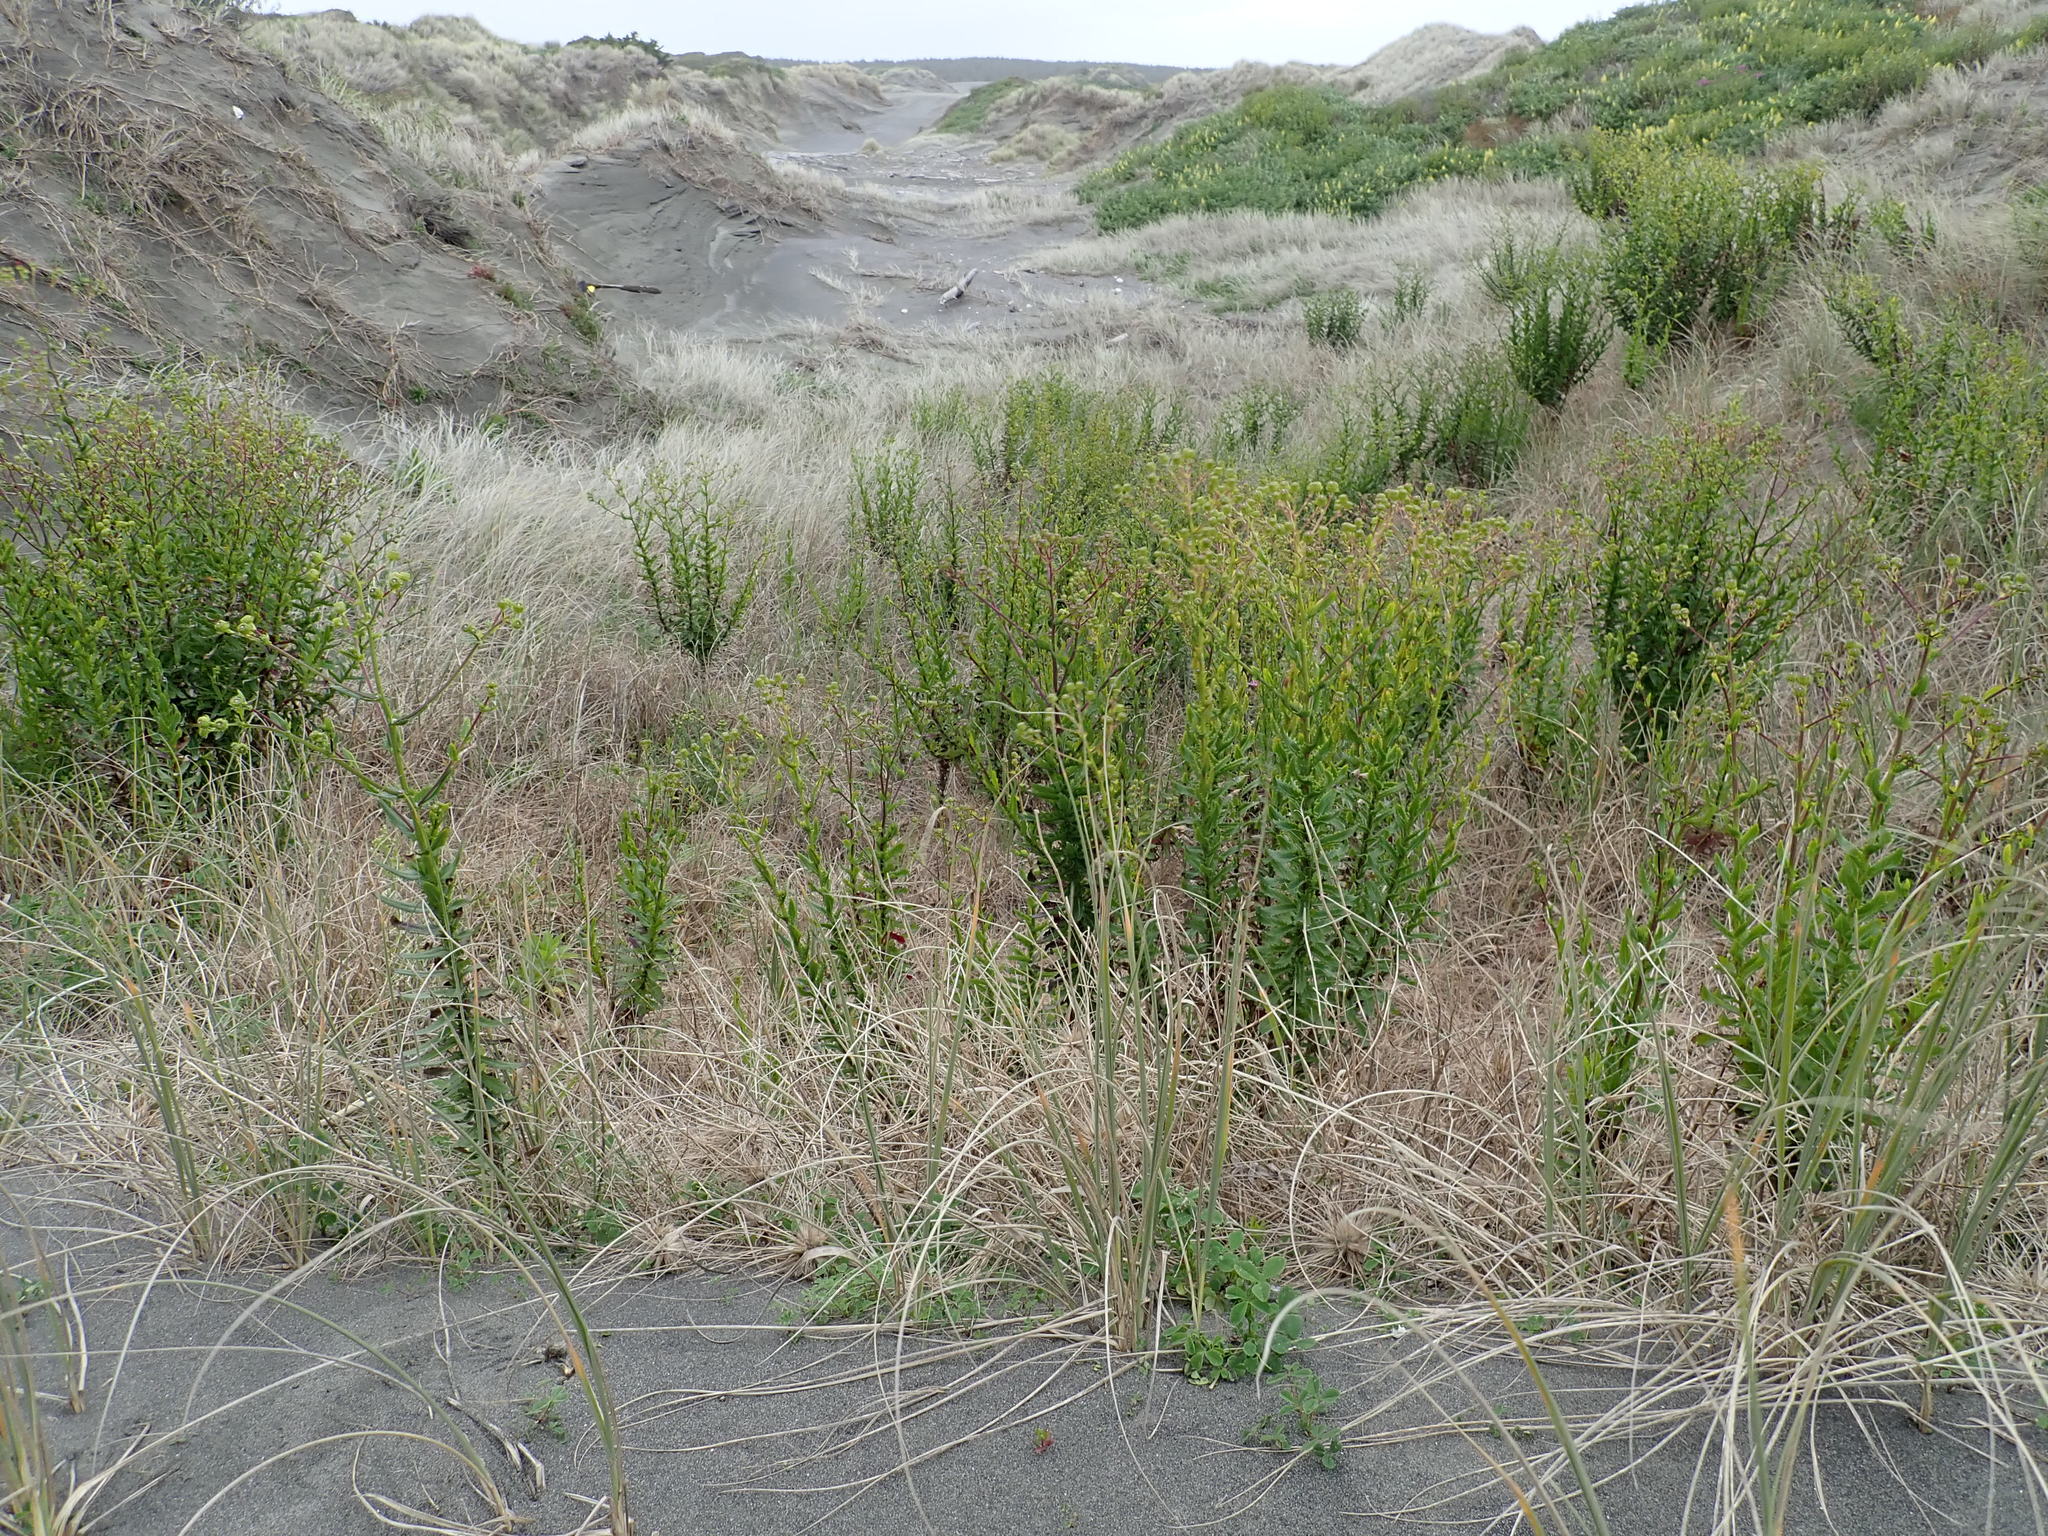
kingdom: Plantae
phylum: Tracheophyta
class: Magnoliopsida
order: Asterales
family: Asteraceae
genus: Senecio
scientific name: Senecio glastifolius
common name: Woad-leaved ragwort
